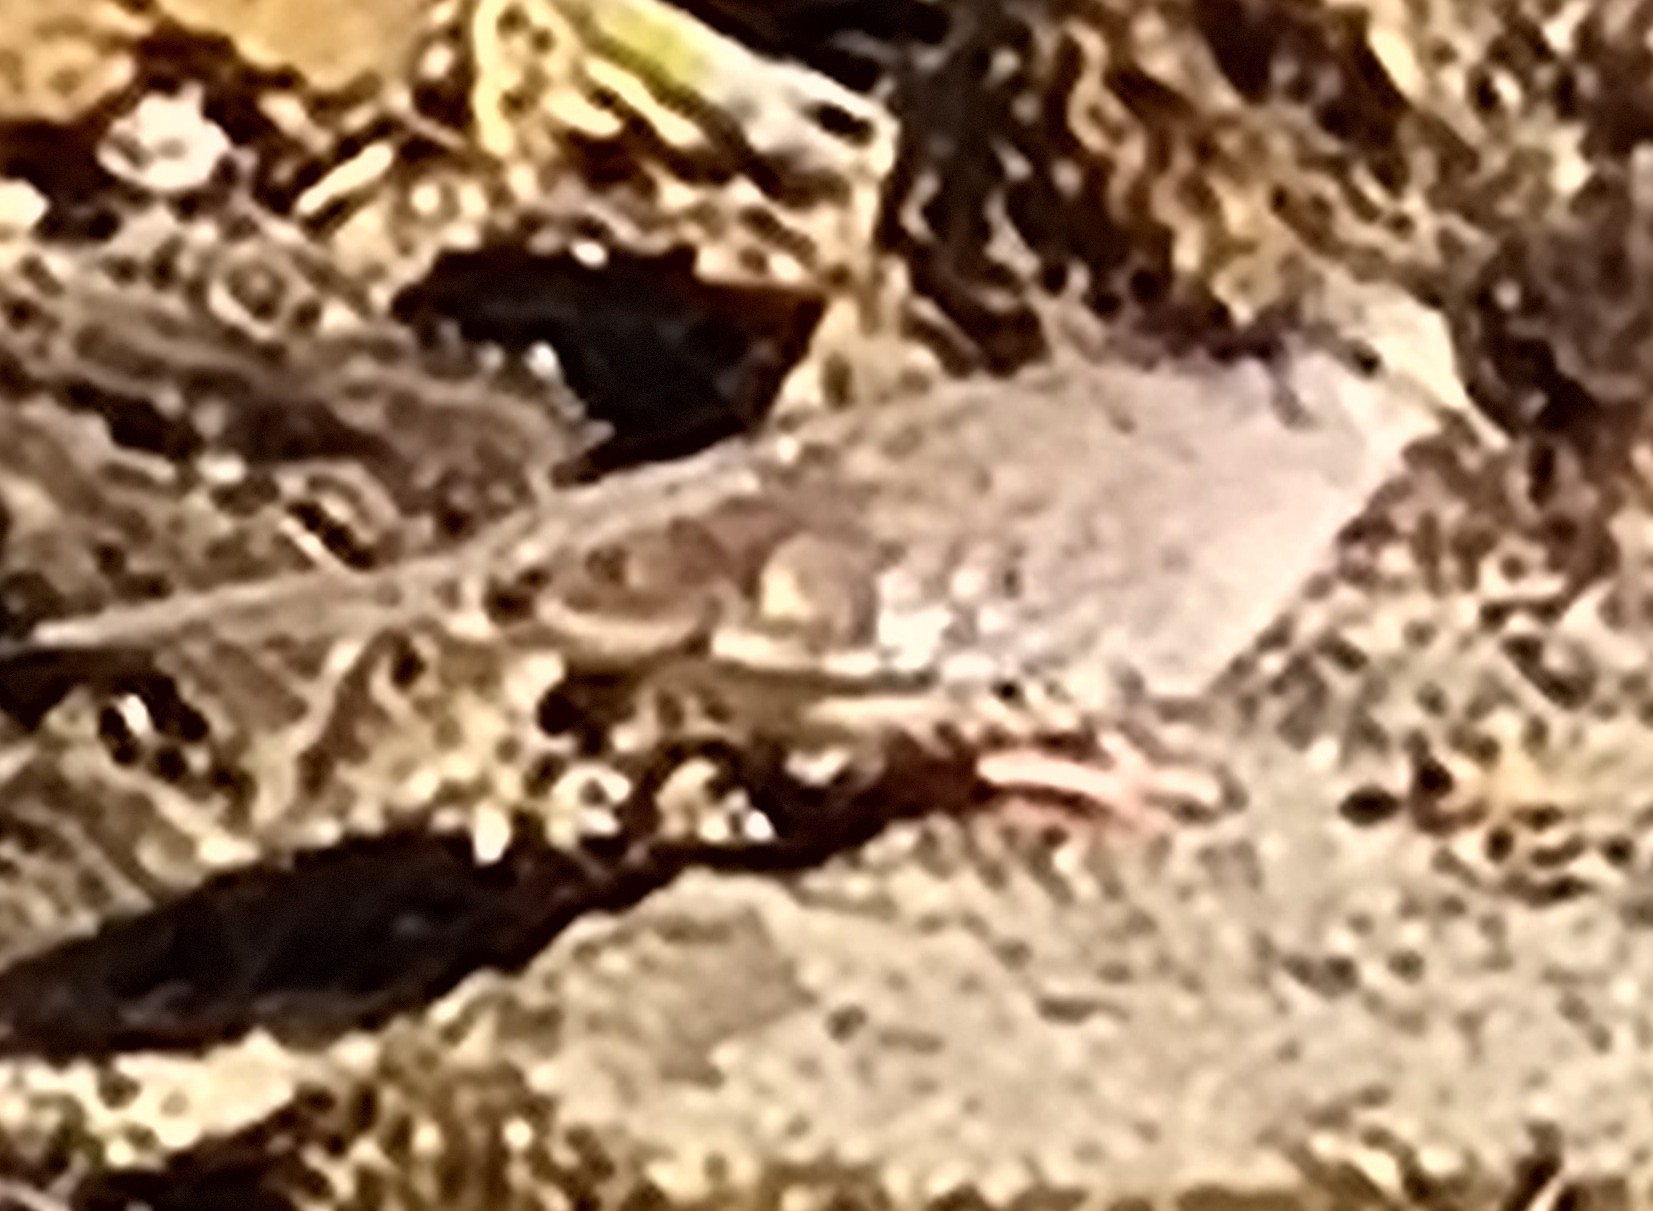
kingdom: Animalia
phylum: Chordata
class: Aves
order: Columbiformes
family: Columbidae
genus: Columbina
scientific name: Columbina squammata
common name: Scaled dove
